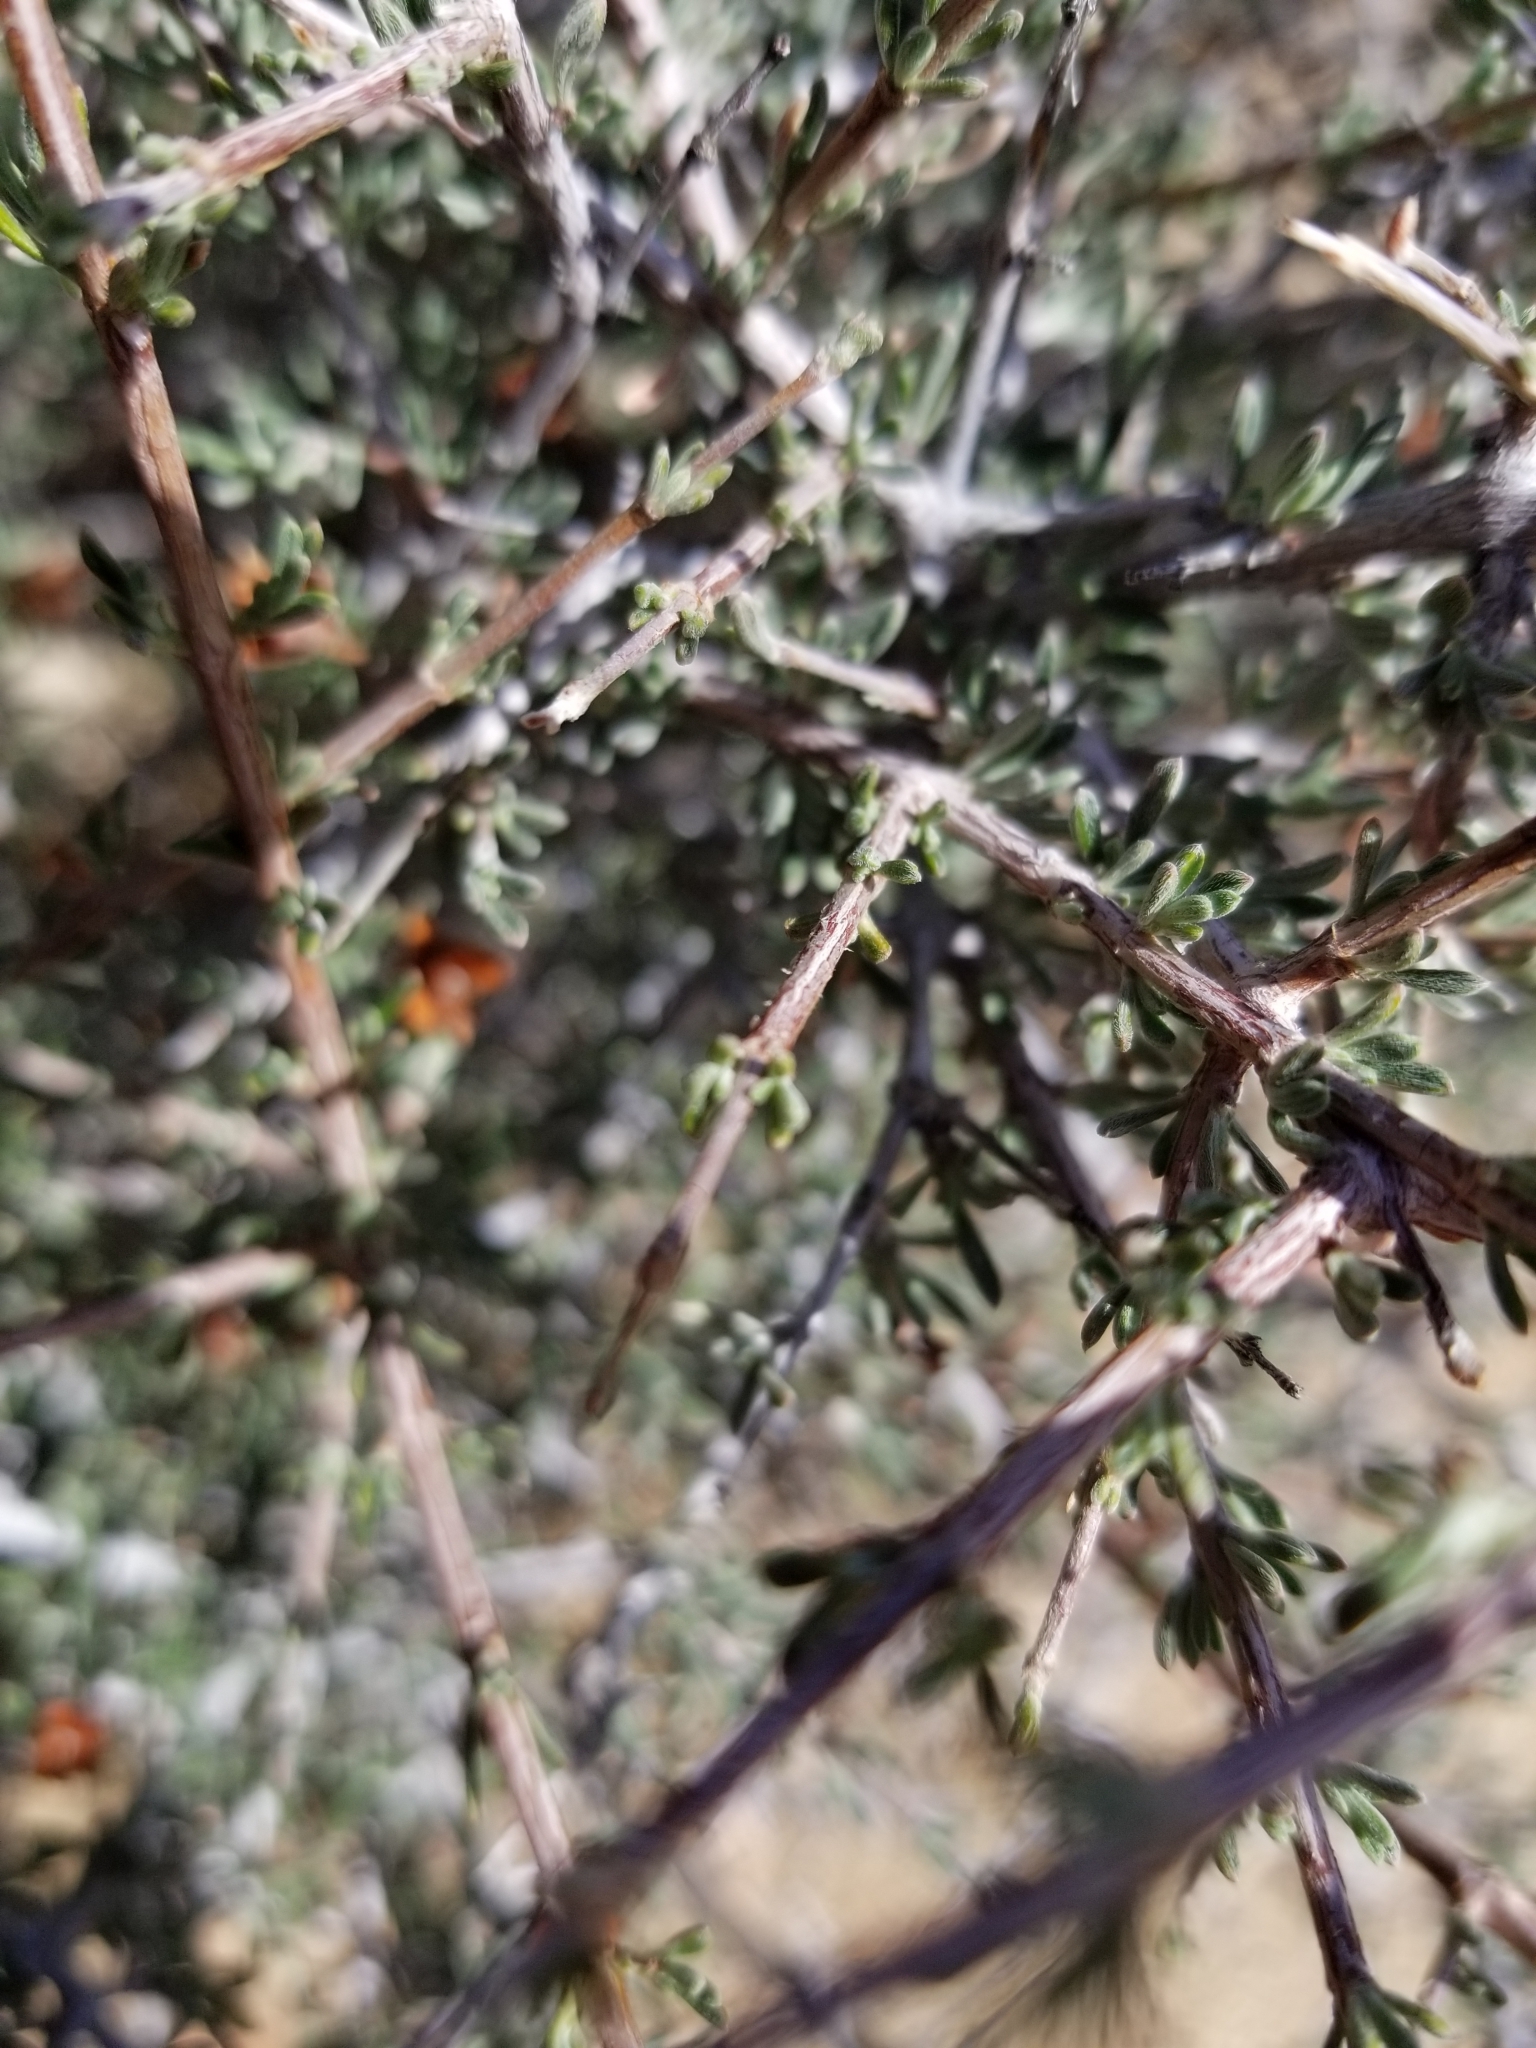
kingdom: Plantae
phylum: Tracheophyta
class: Magnoliopsida
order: Rosales
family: Rosaceae
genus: Coleogyne
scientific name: Coleogyne ramosissima
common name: Blackbrush
